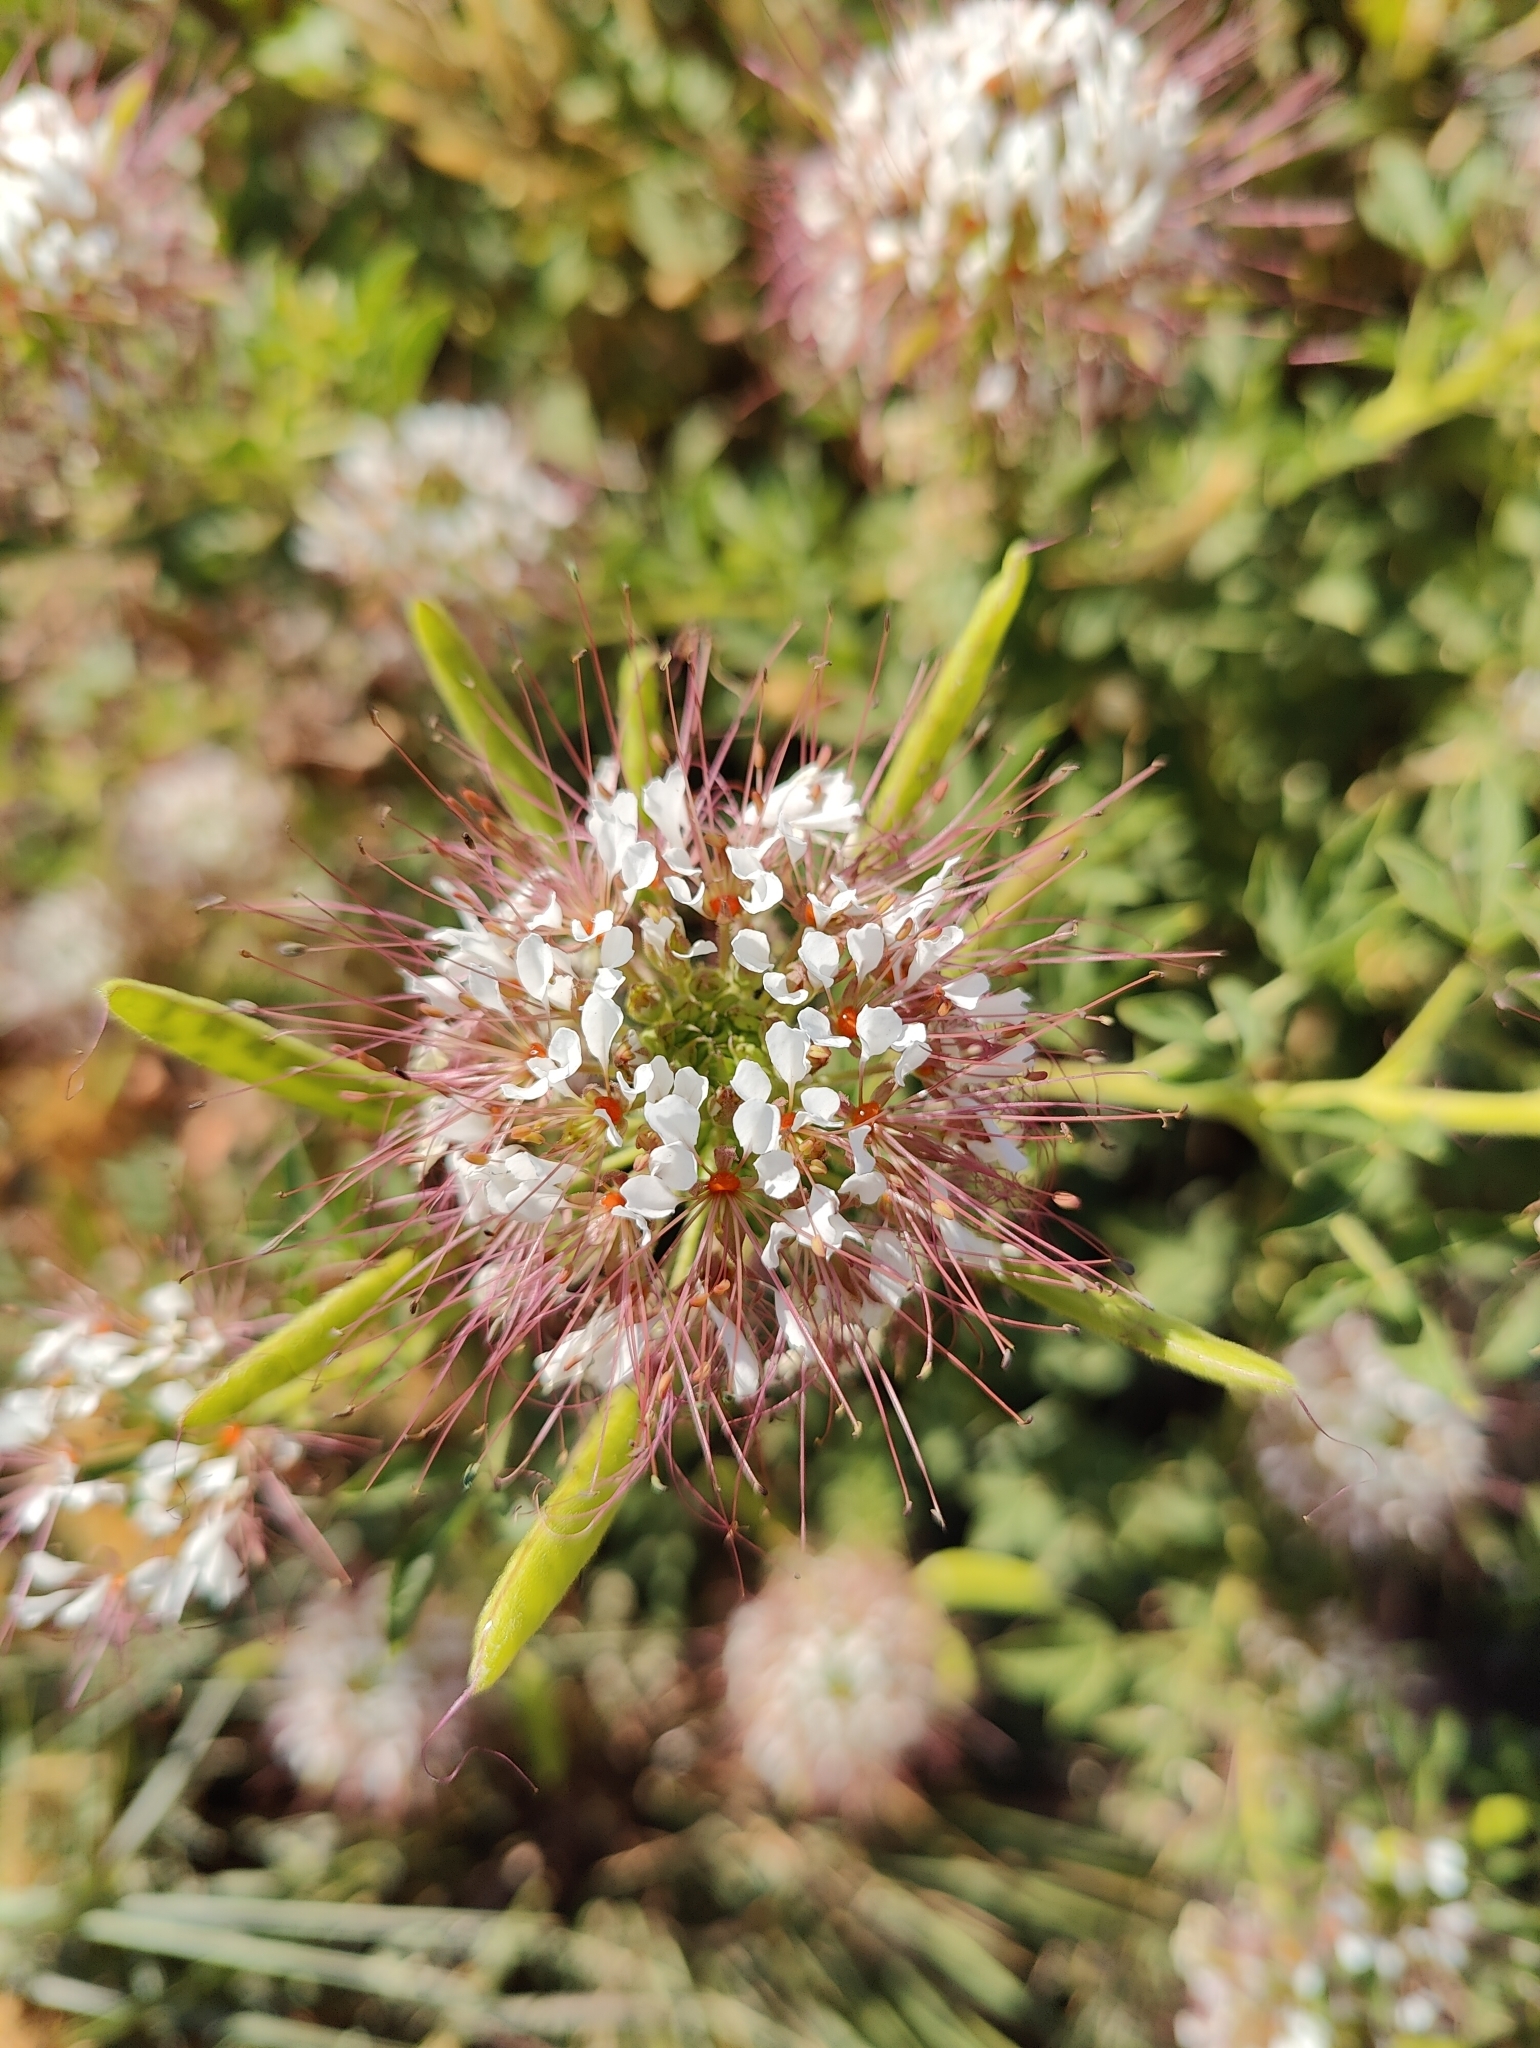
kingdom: Plantae
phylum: Tracheophyta
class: Magnoliopsida
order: Brassicales
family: Cleomaceae
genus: Polanisia
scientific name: Polanisia dodecandra
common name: Clammyweed
